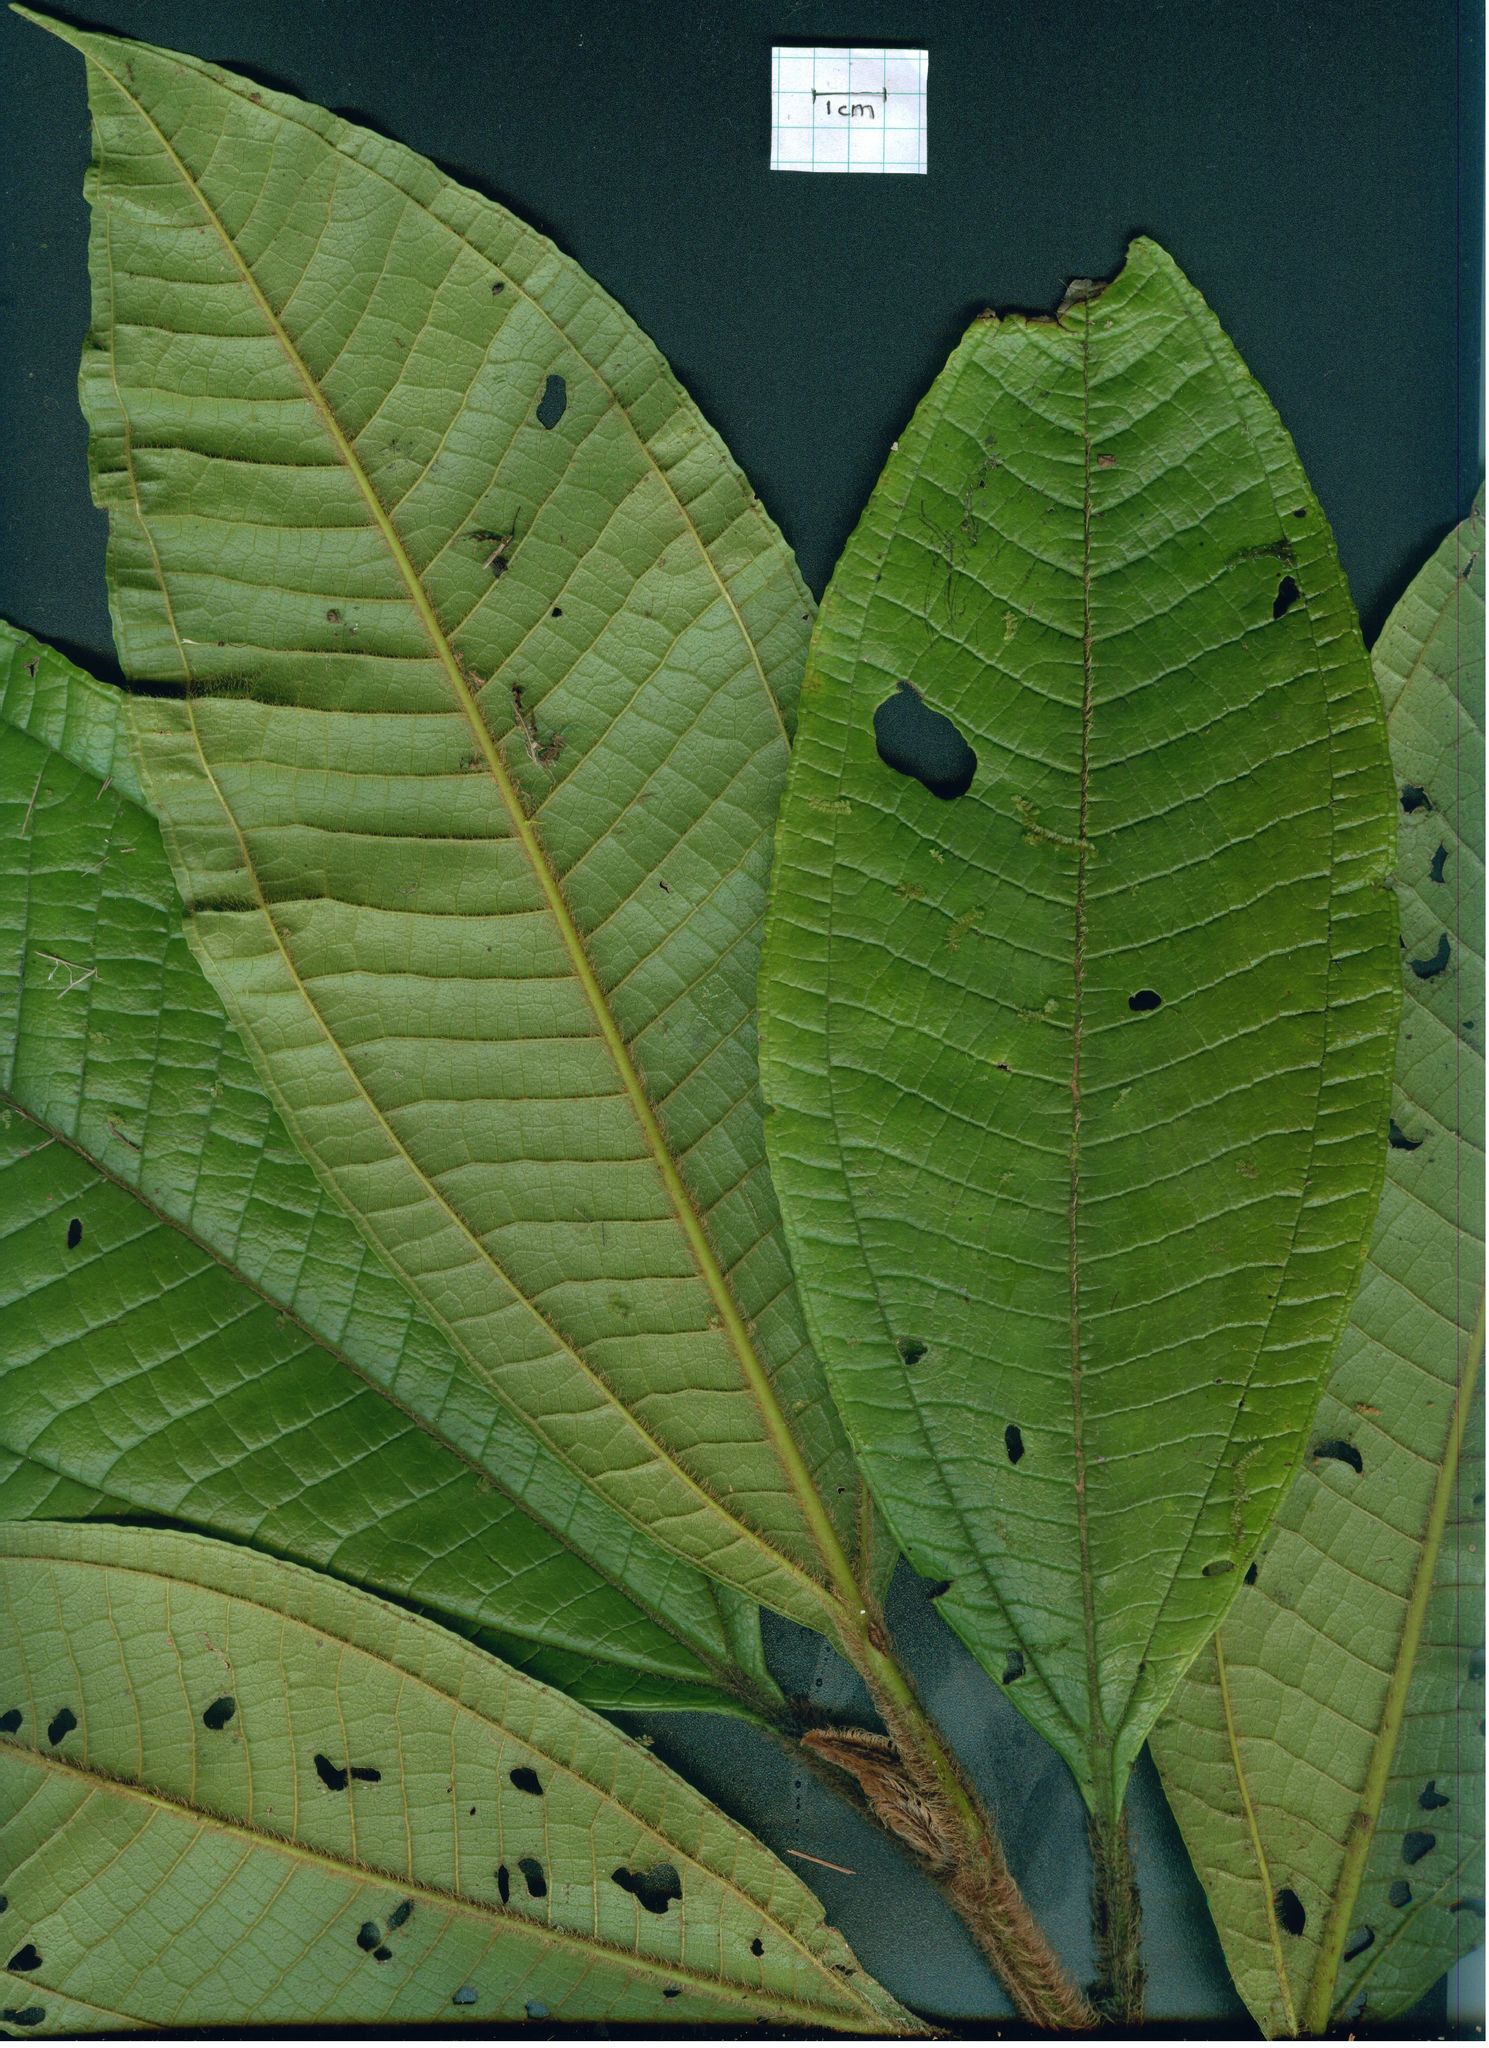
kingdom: Plantae
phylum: Tracheophyta
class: Magnoliopsida
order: Myrtales
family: Melastomataceae
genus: Miconia
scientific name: Miconia matthaei
